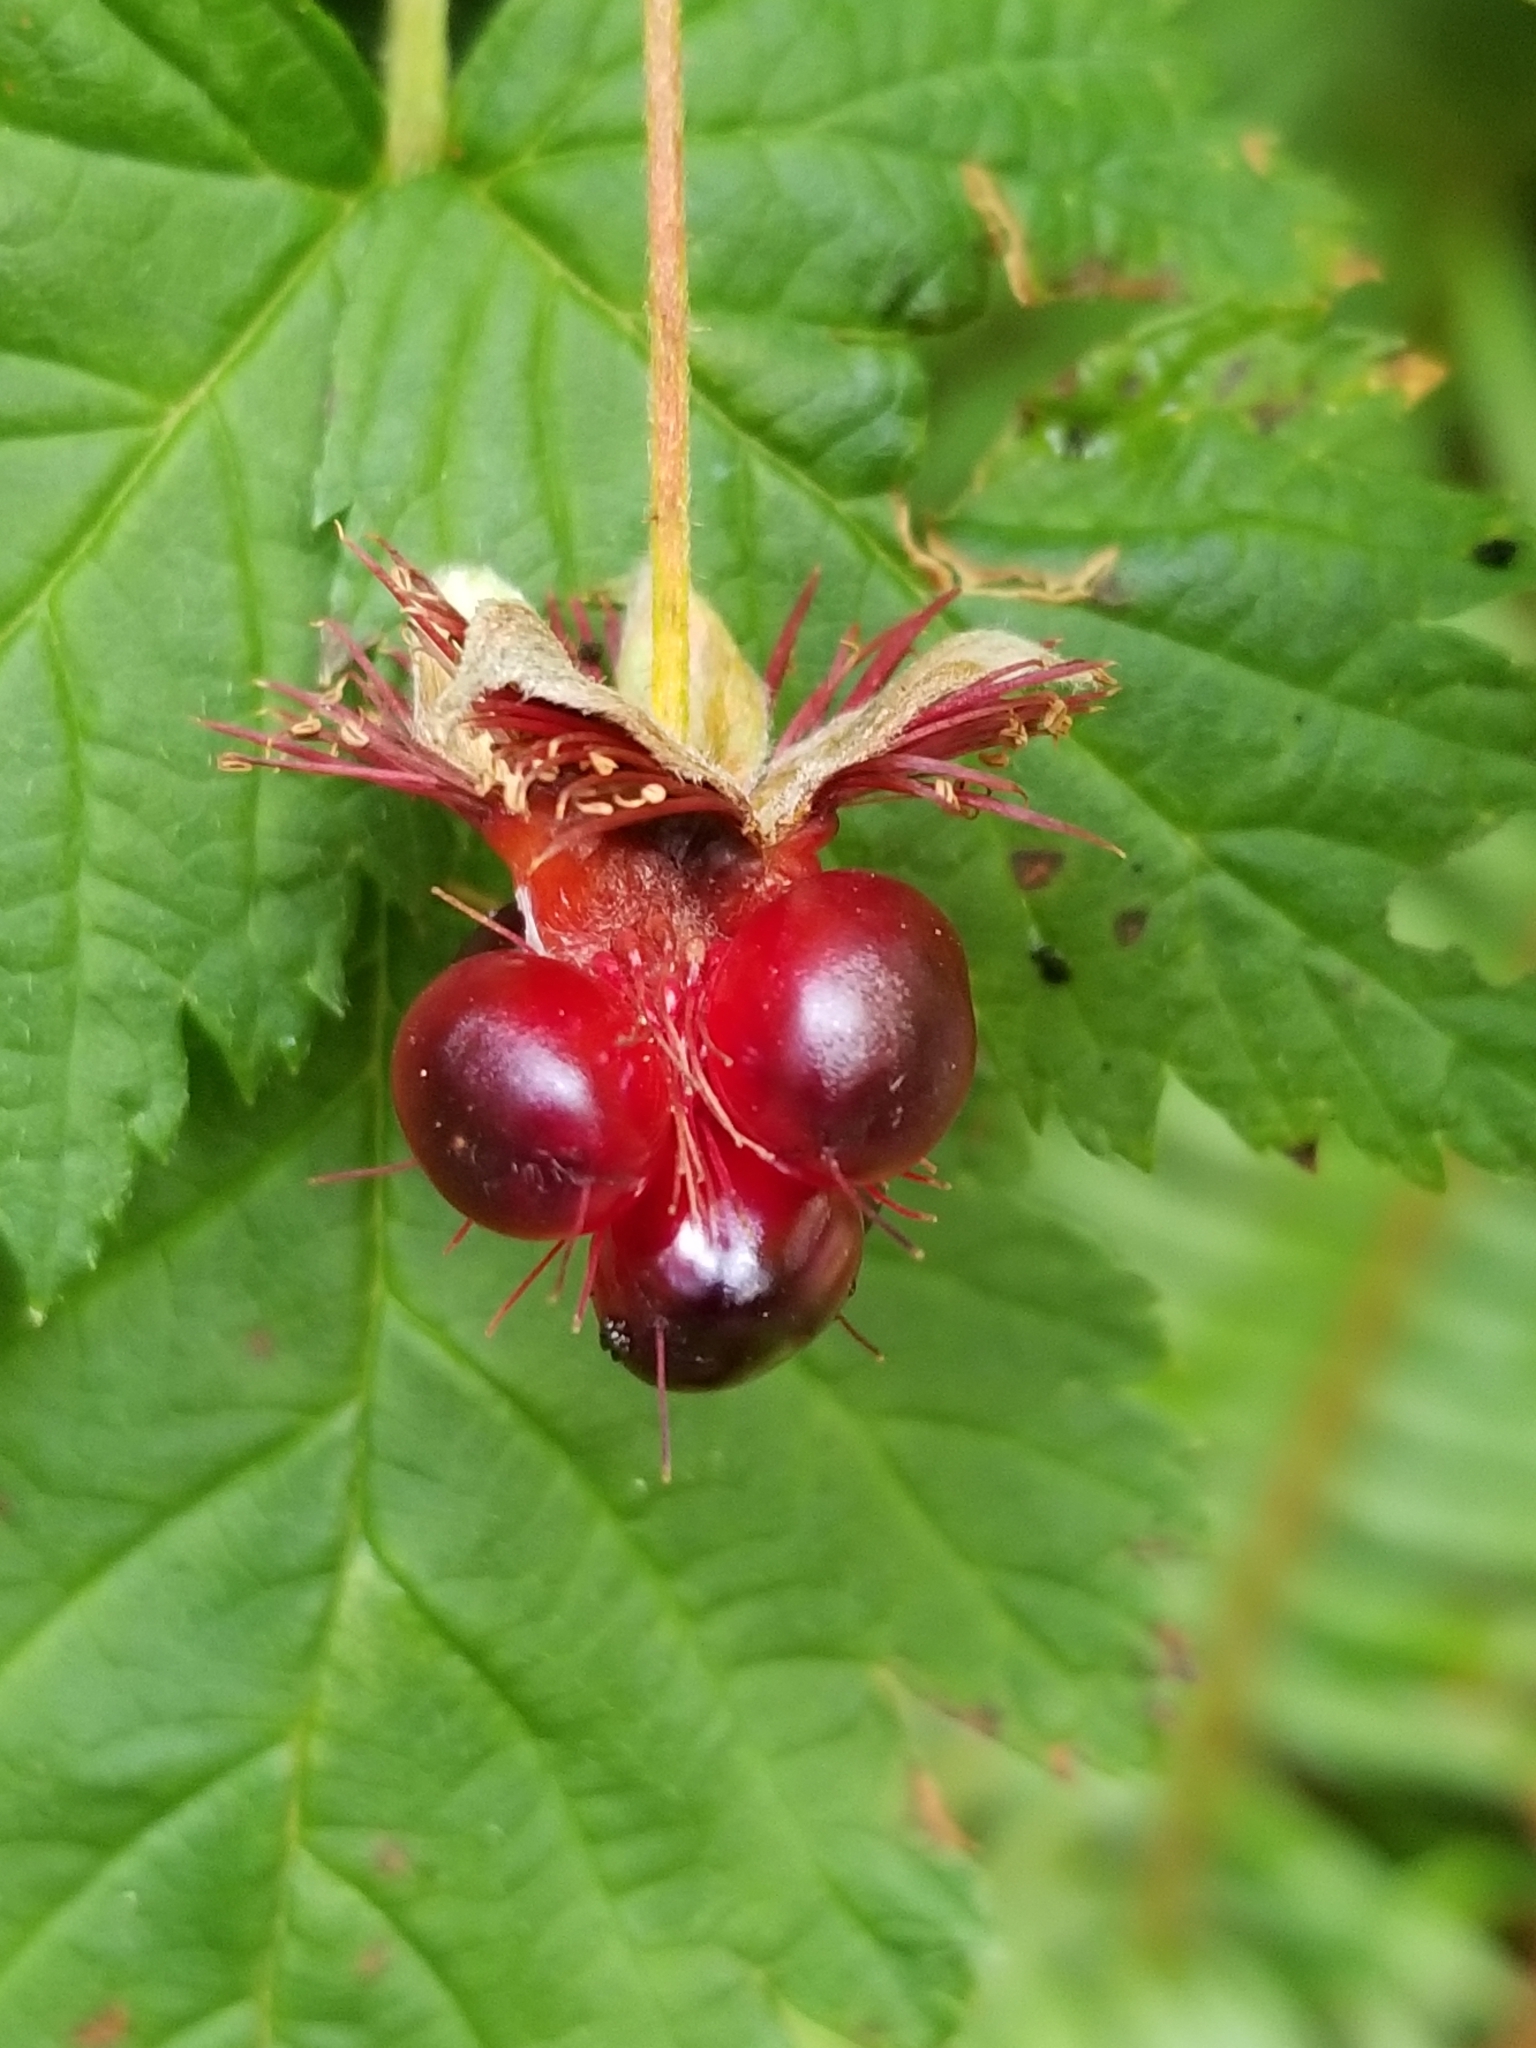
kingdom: Plantae
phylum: Tracheophyta
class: Magnoliopsida
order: Rosales
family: Rosaceae
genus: Rubus
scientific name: Rubus spectabilis
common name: Salmonberry
